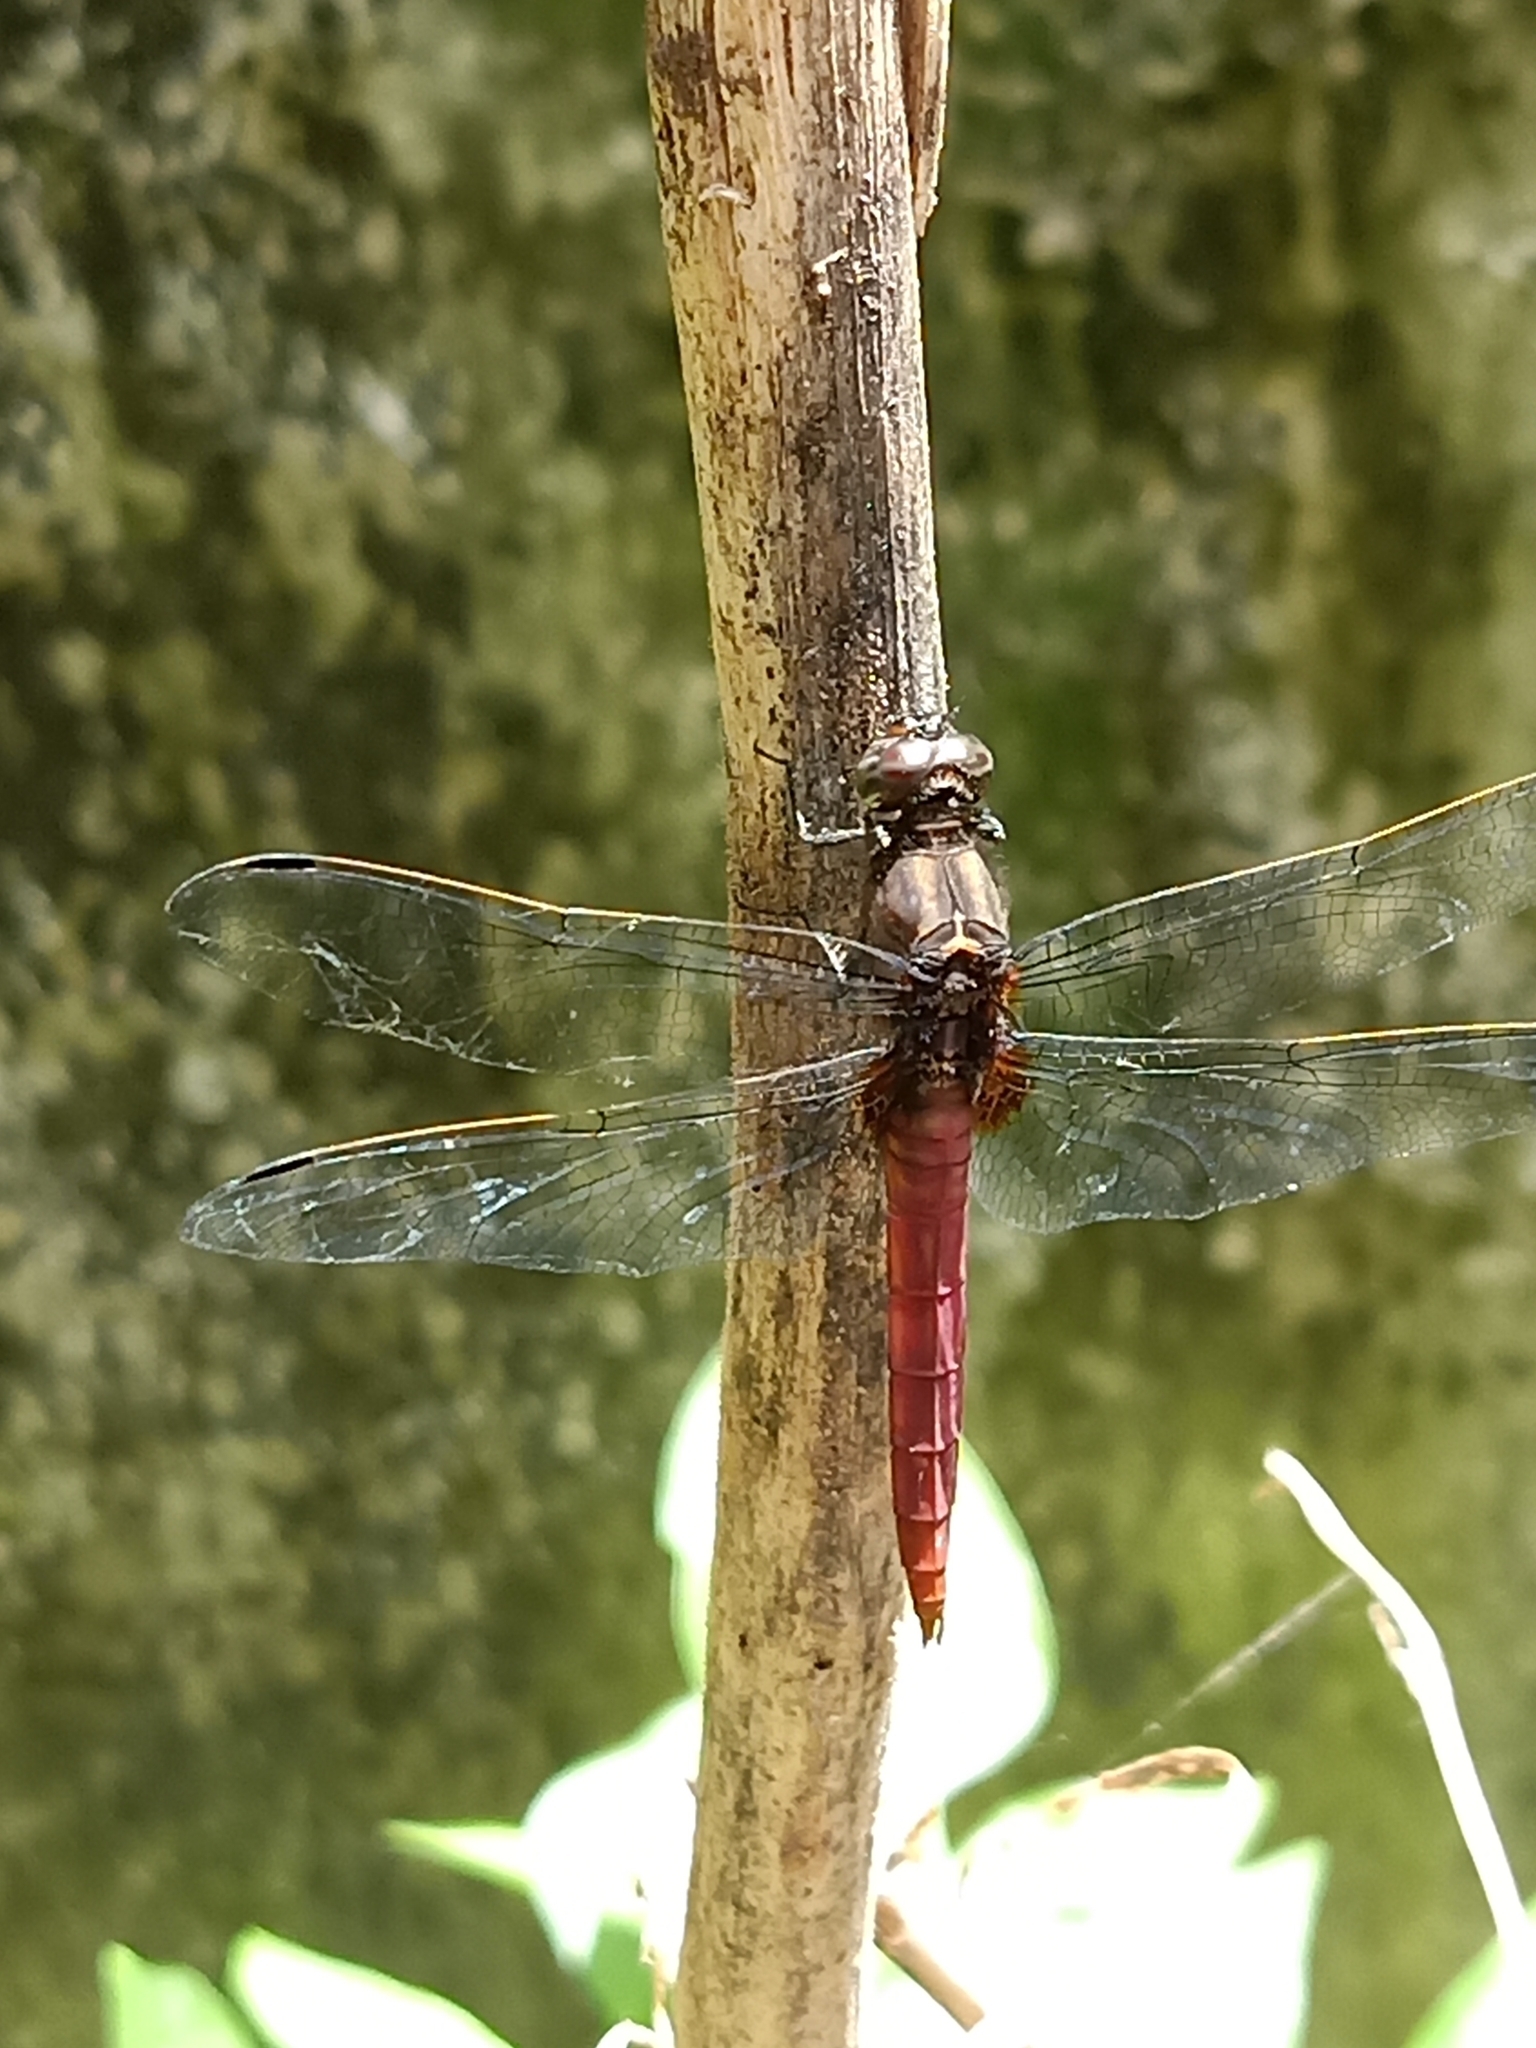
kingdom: Animalia
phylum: Arthropoda
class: Insecta
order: Odonata
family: Libellulidae
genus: Orthetrum
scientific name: Orthetrum chrysis
